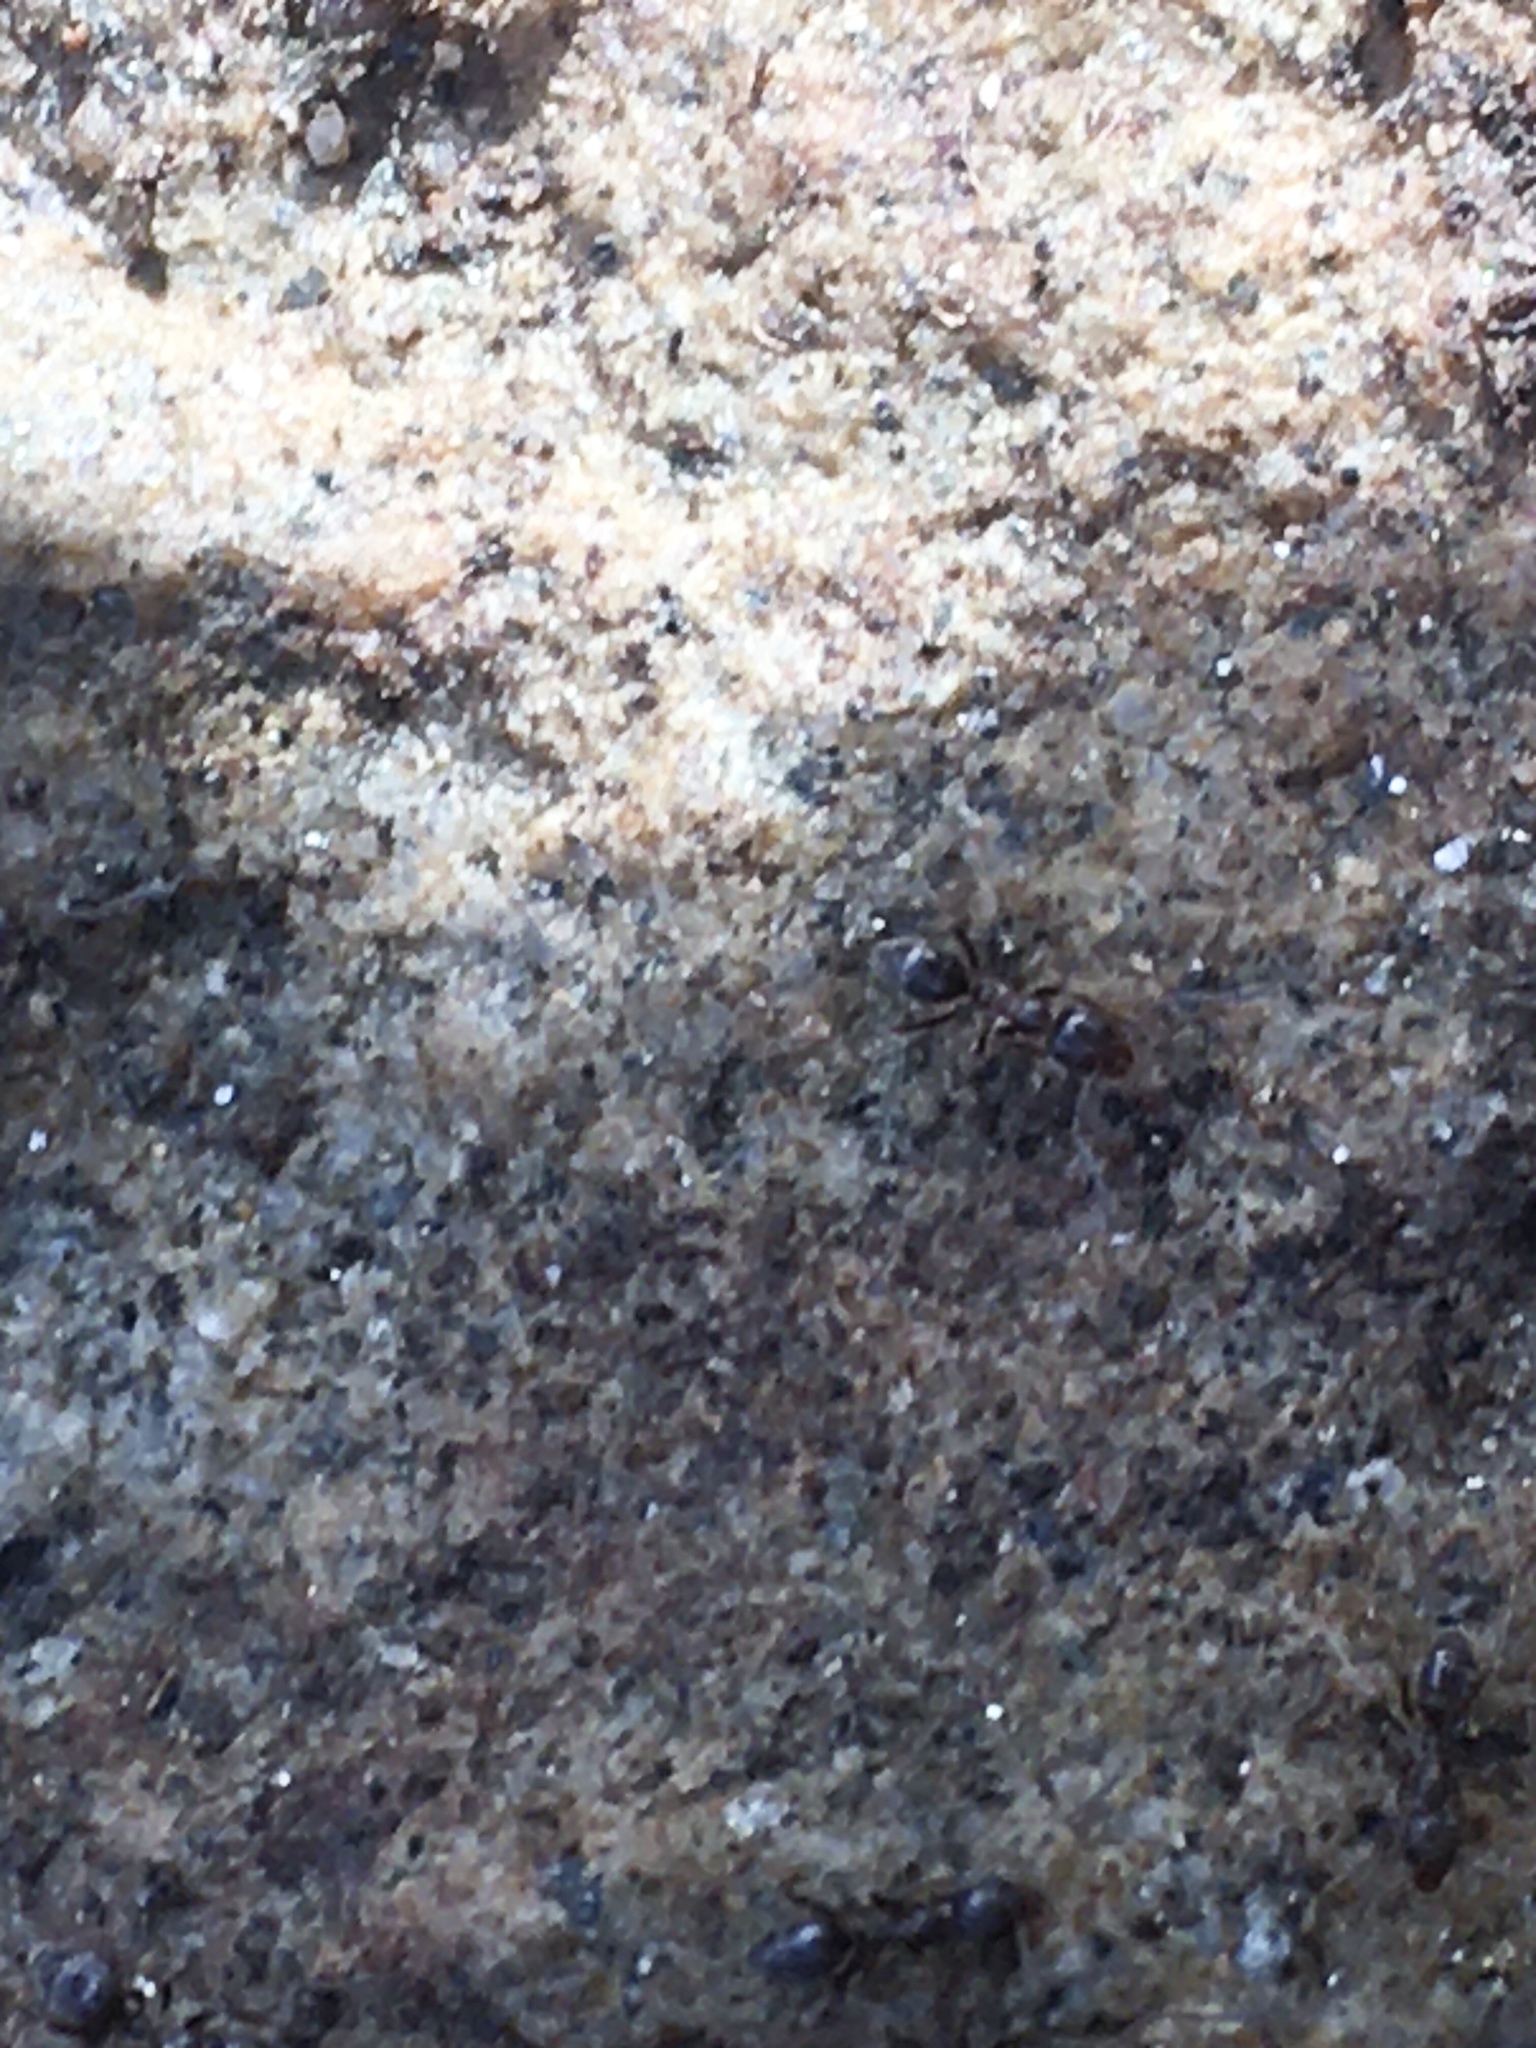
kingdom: Animalia
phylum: Arthropoda
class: Insecta
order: Hymenoptera
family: Formicidae
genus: Linepithema
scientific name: Linepithema humile
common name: Argentine ant
